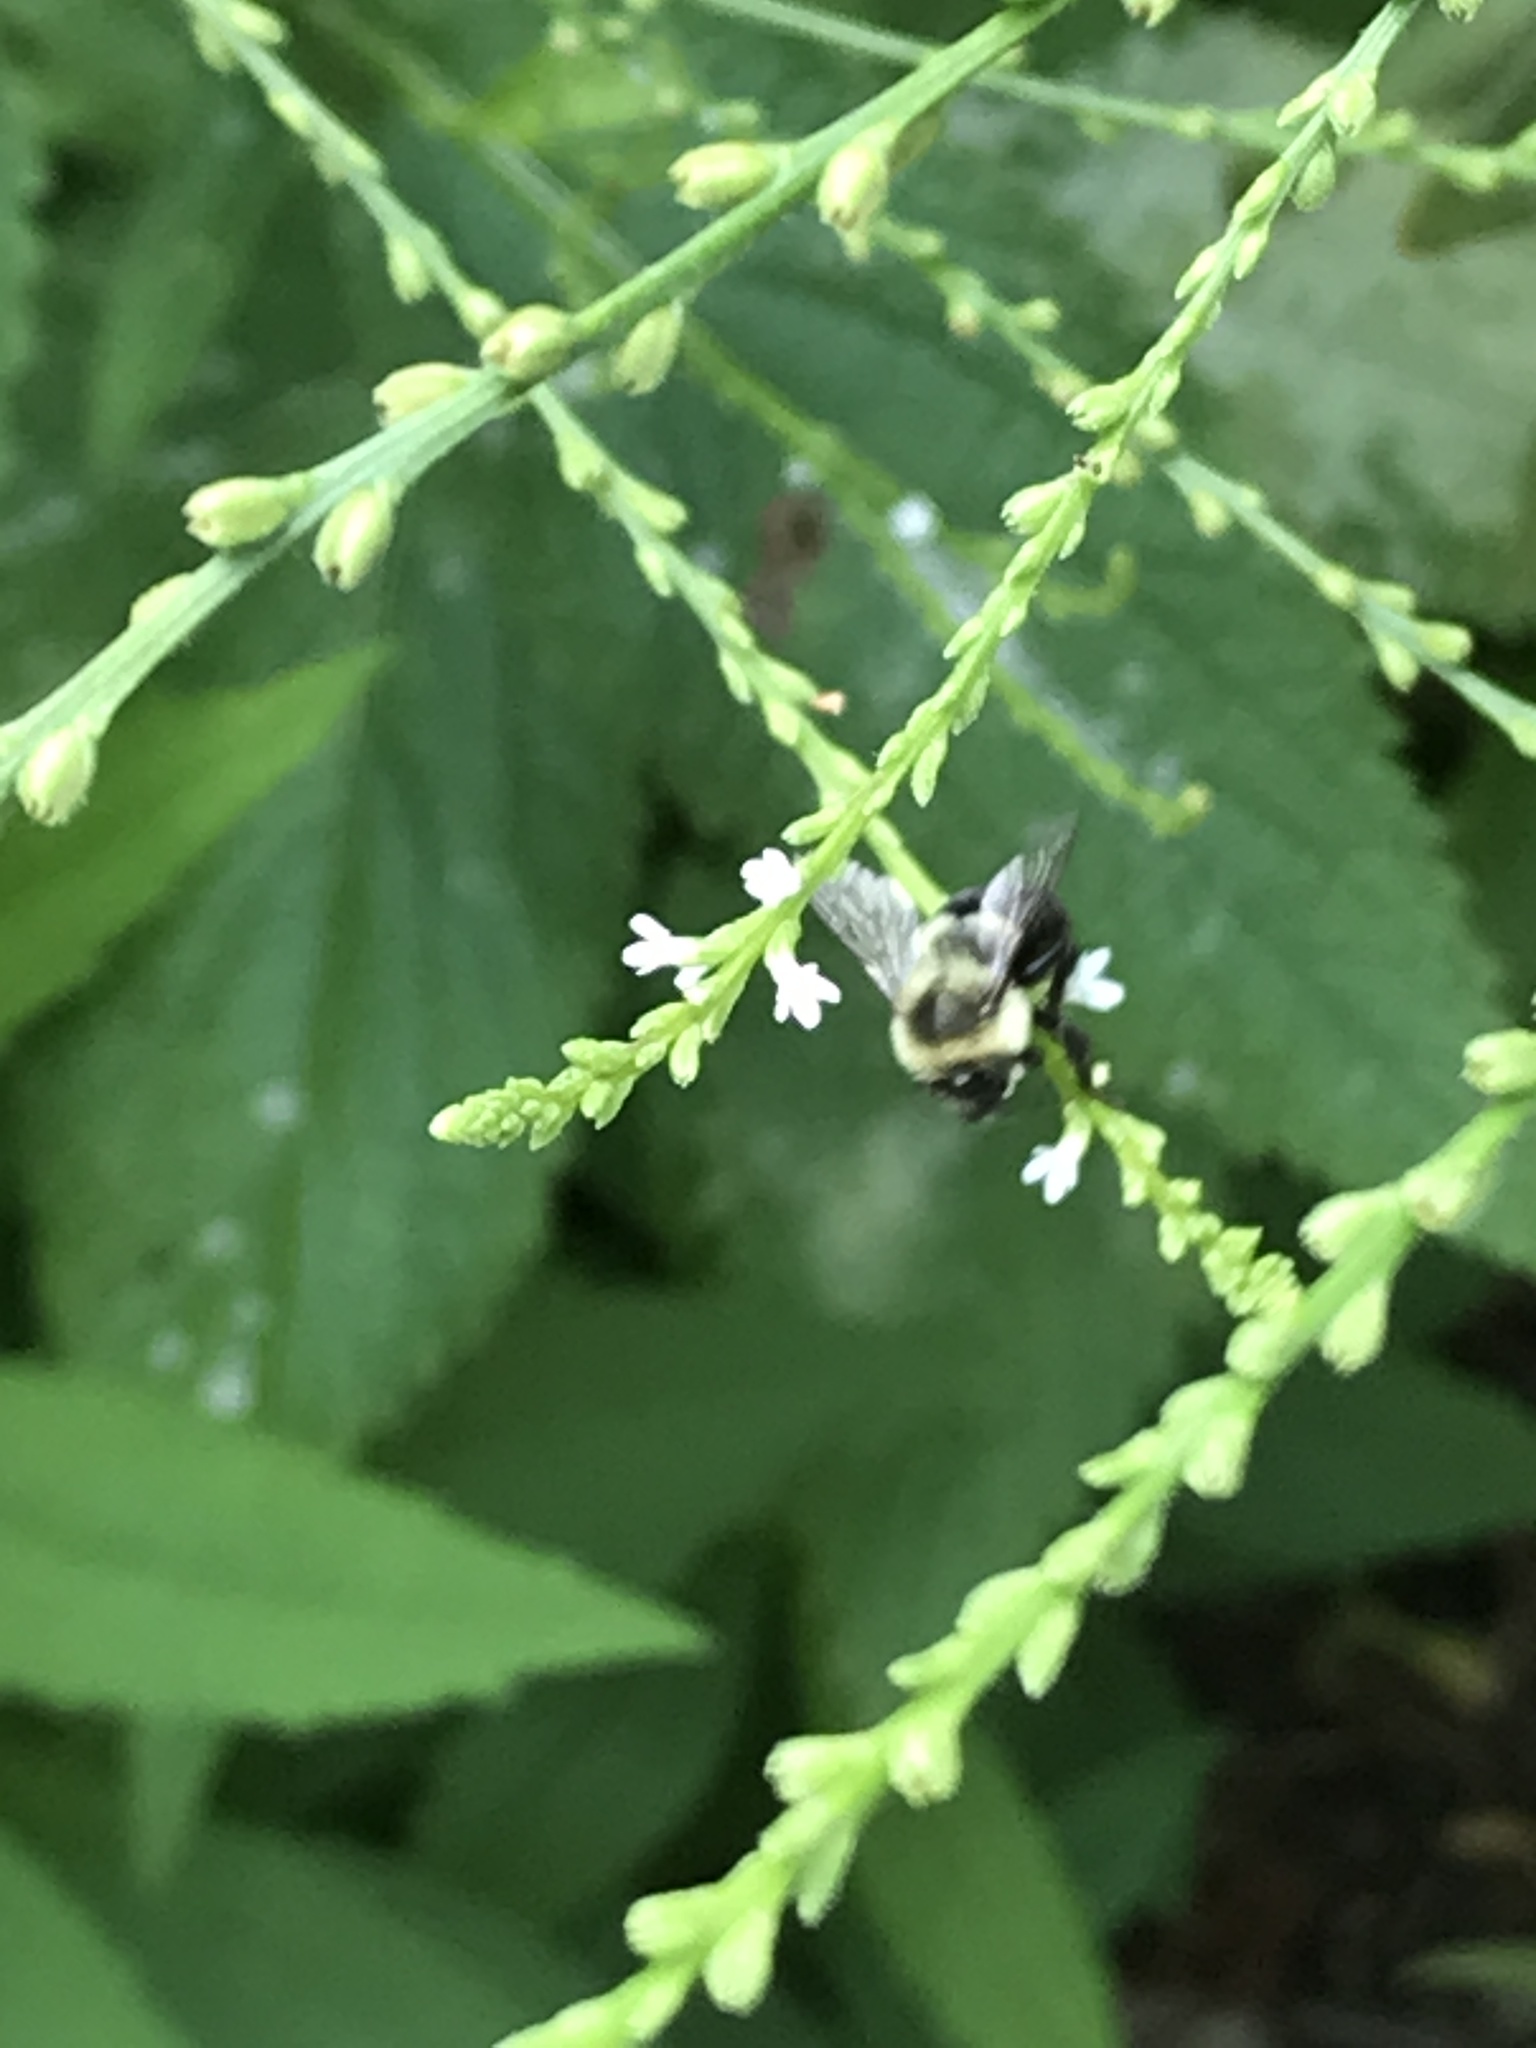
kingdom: Animalia
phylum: Arthropoda
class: Insecta
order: Hymenoptera
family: Apidae
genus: Bombus
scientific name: Bombus impatiens
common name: Common eastern bumble bee
